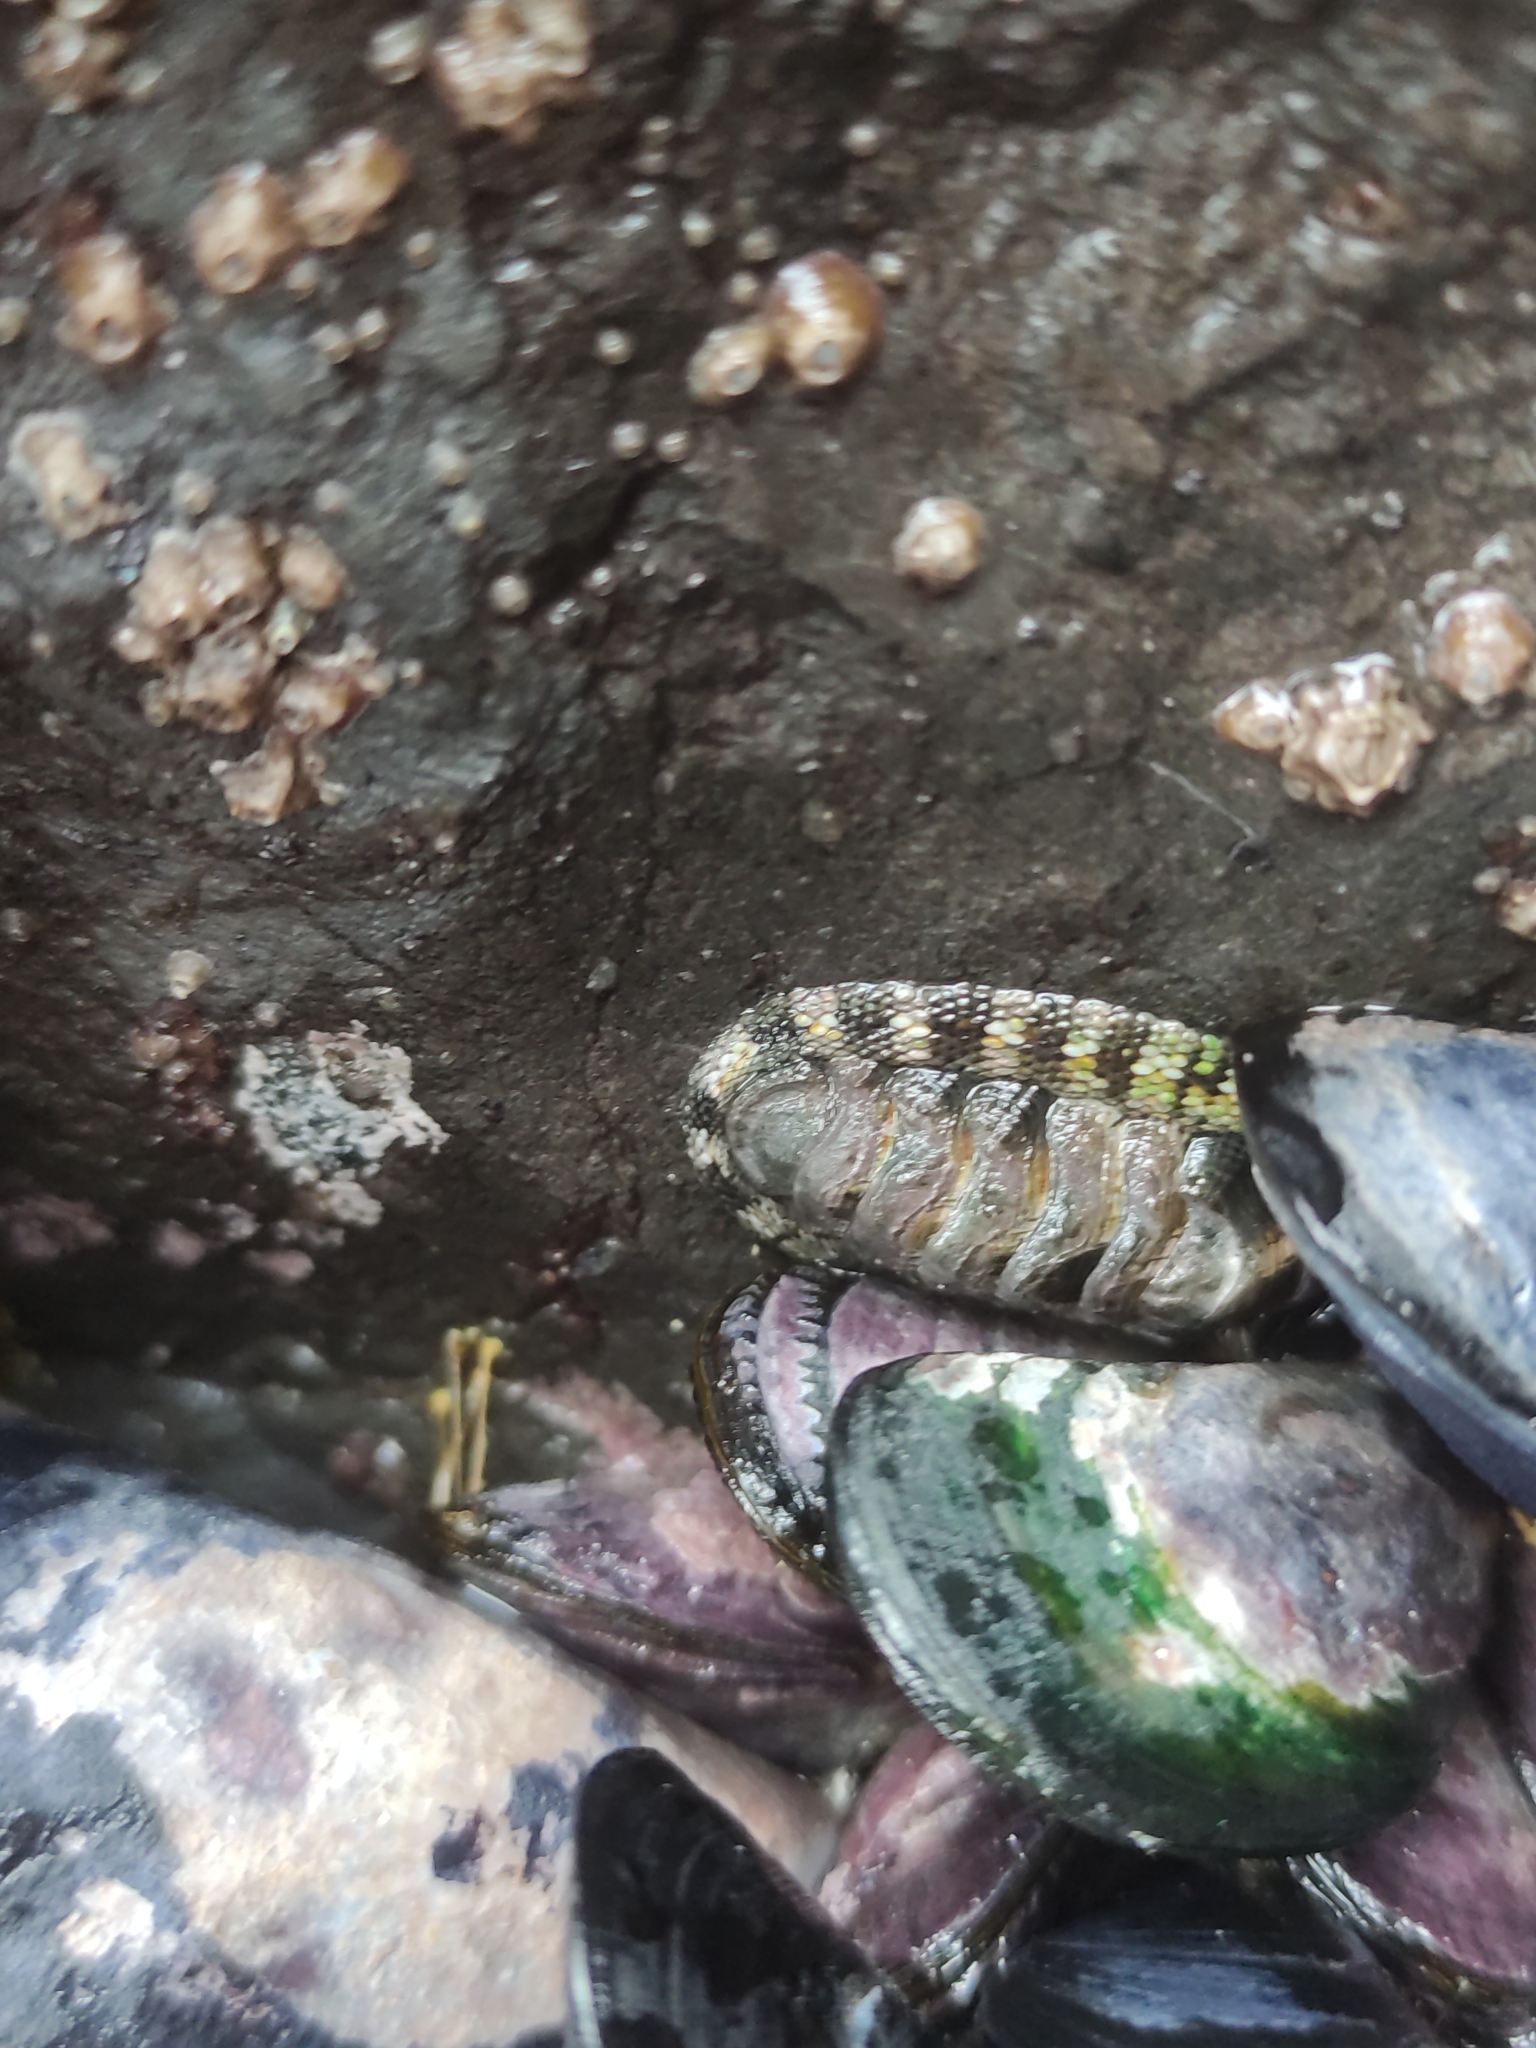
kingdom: Animalia
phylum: Mollusca
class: Polyplacophora
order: Chitonida
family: Chitonidae
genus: Sypharochiton
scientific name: Sypharochiton pelliserpentis
